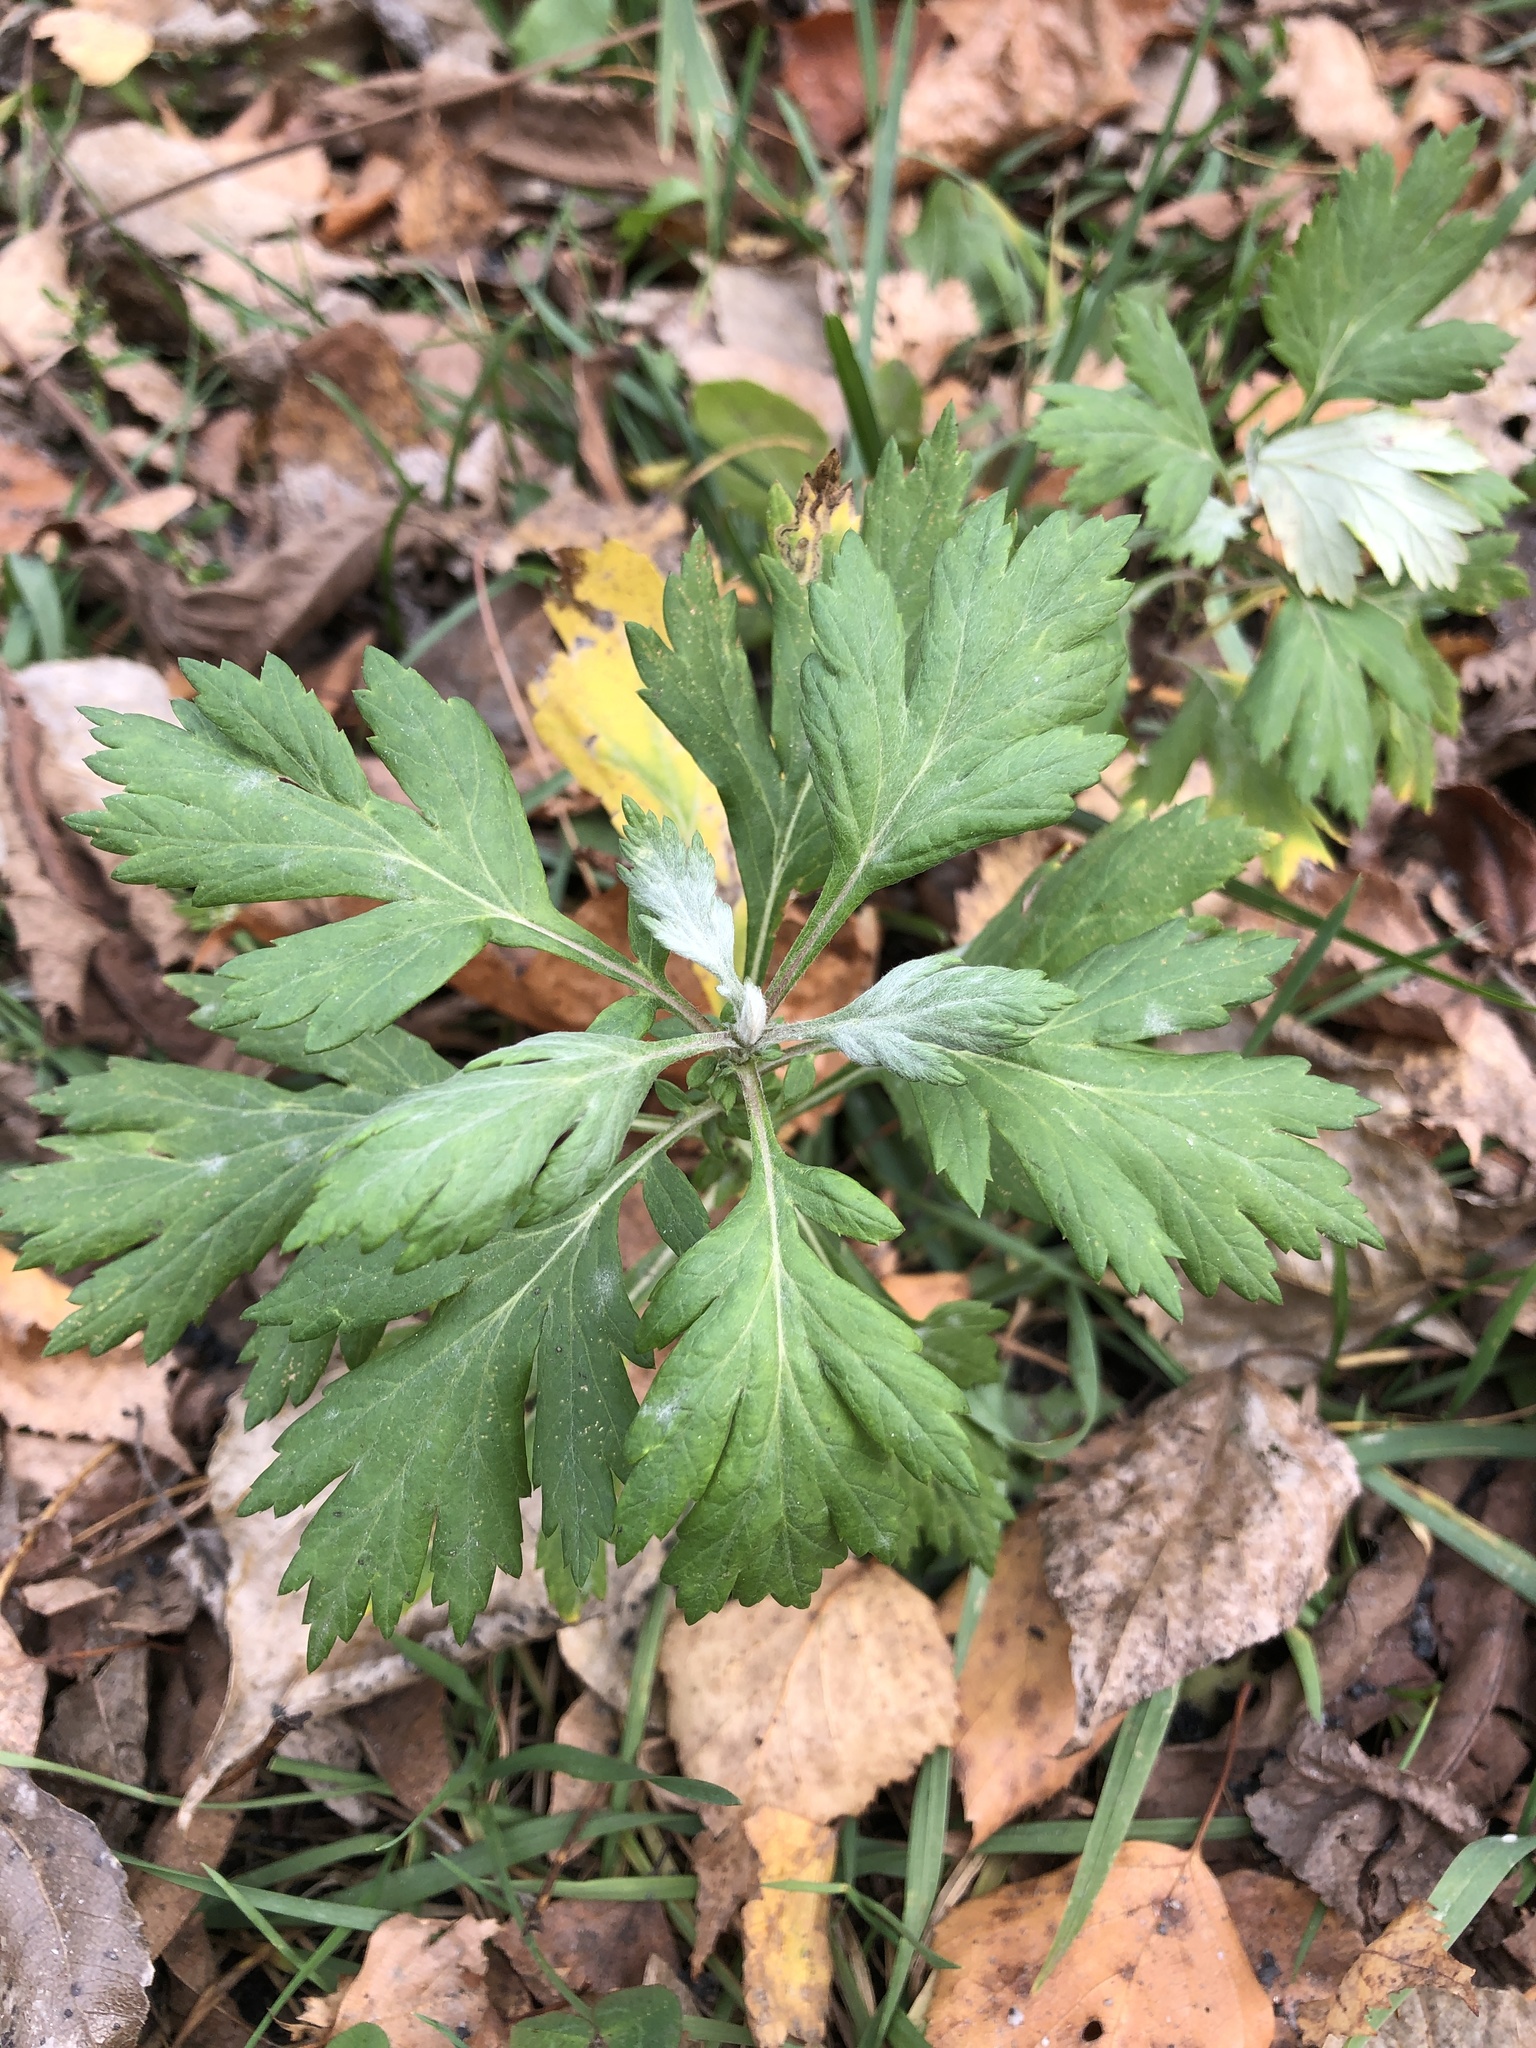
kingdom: Plantae
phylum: Tracheophyta
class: Magnoliopsida
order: Asterales
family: Asteraceae
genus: Artemisia
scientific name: Artemisia vulgaris
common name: Mugwort
